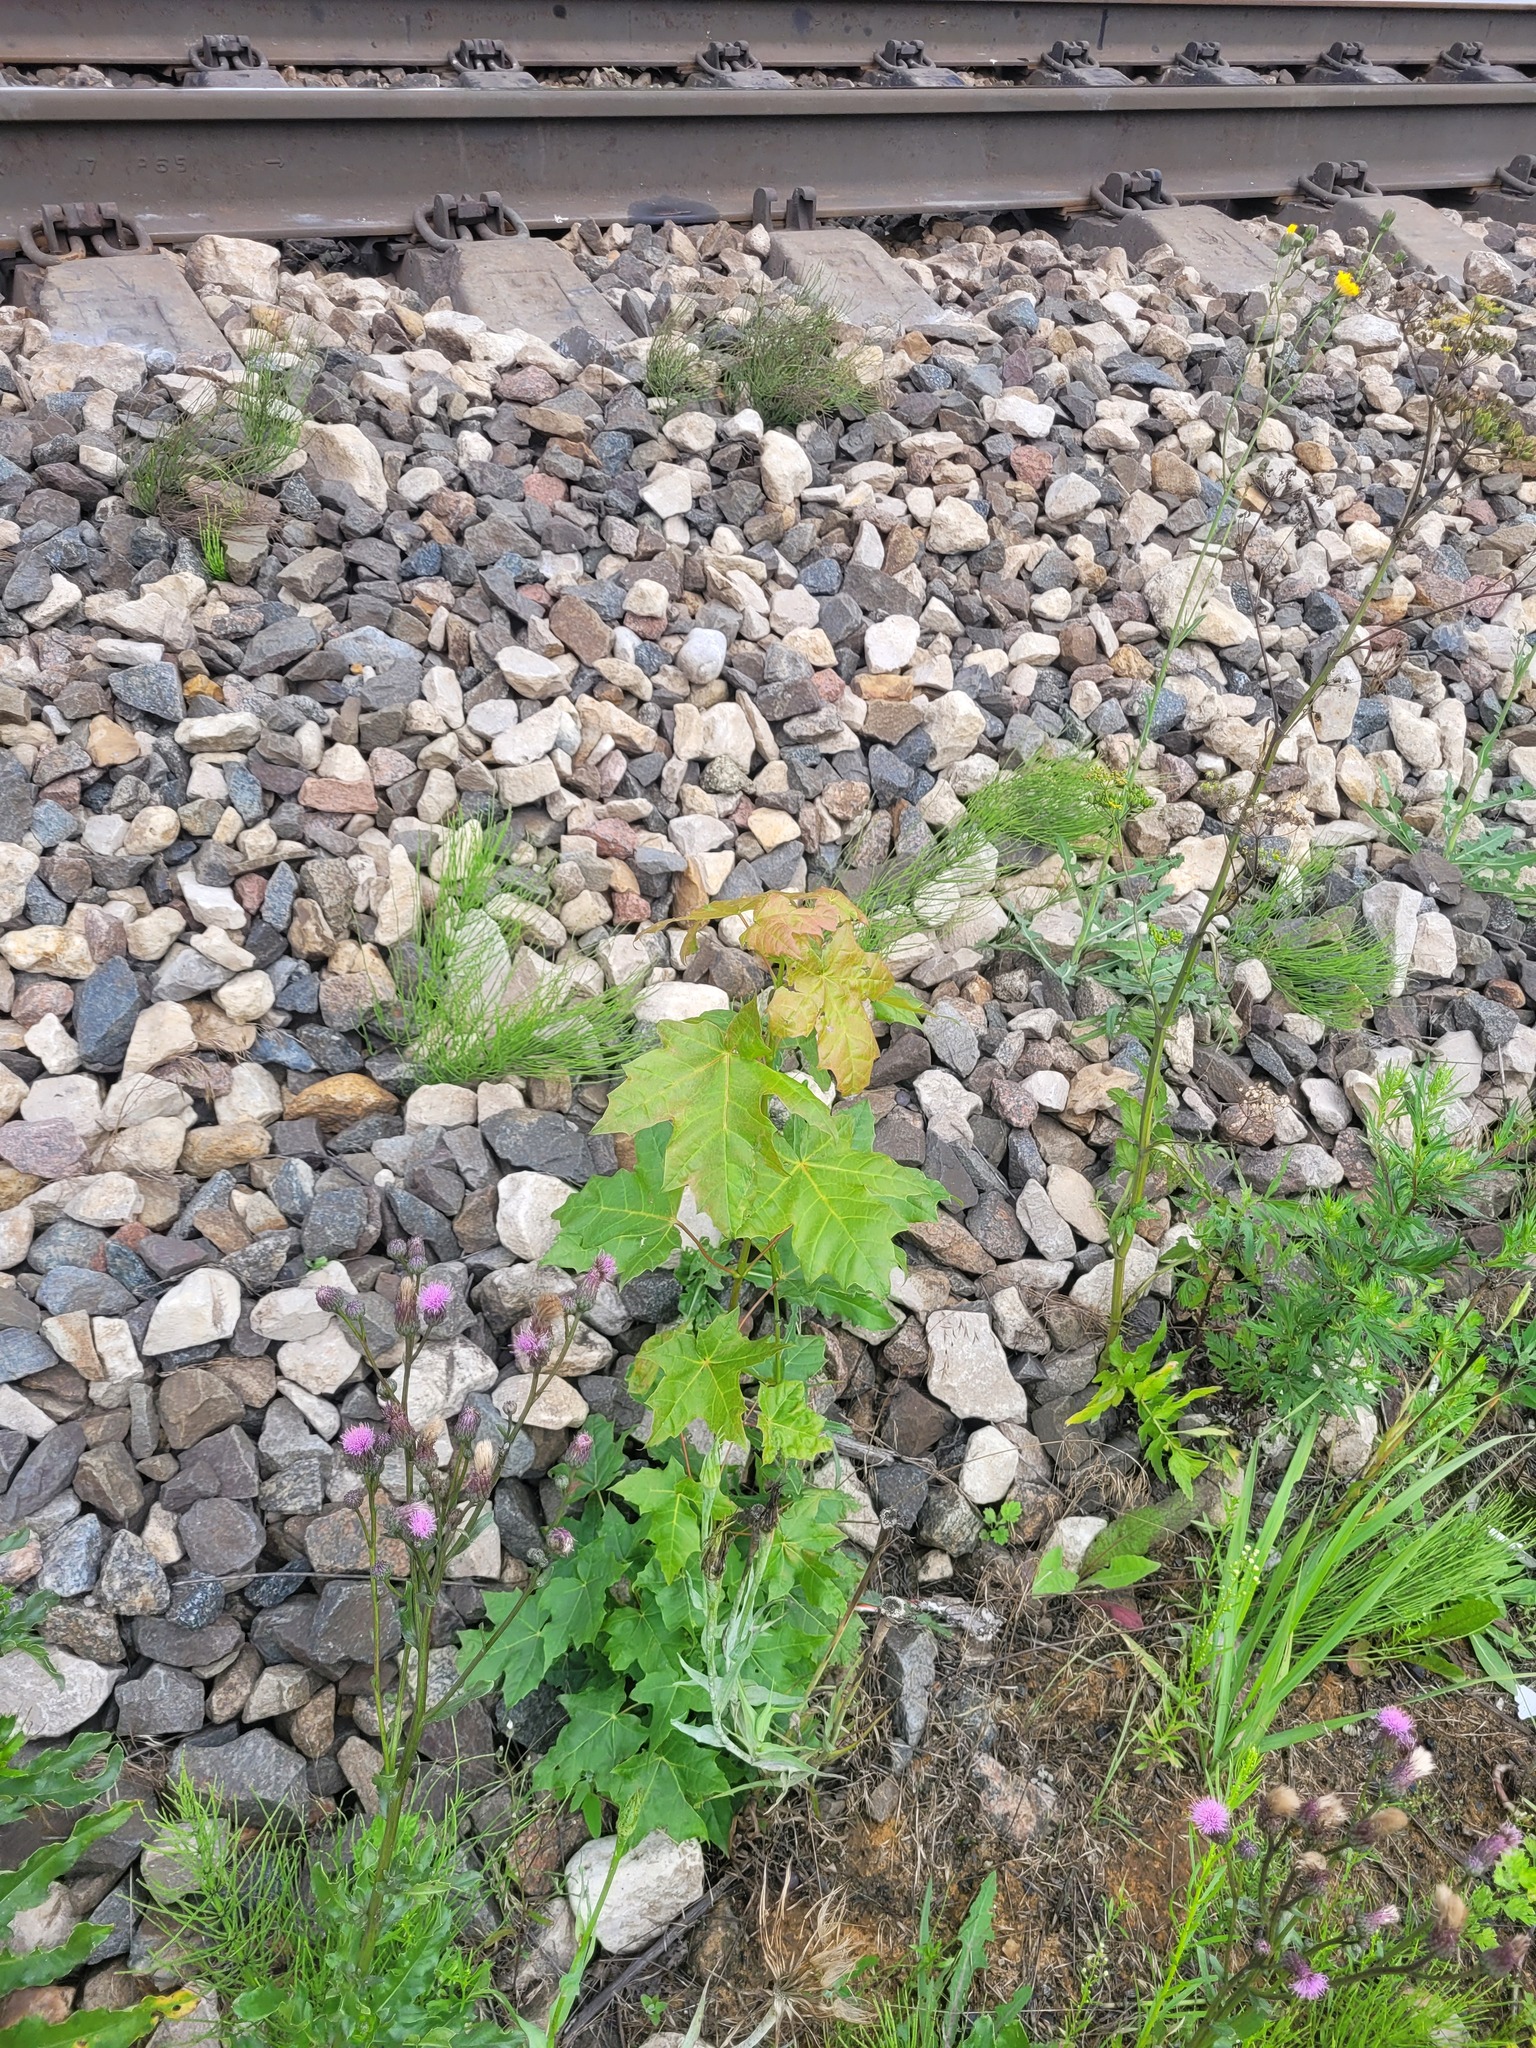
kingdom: Plantae
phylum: Tracheophyta
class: Magnoliopsida
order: Sapindales
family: Sapindaceae
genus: Acer
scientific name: Acer platanoides
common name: Norway maple
